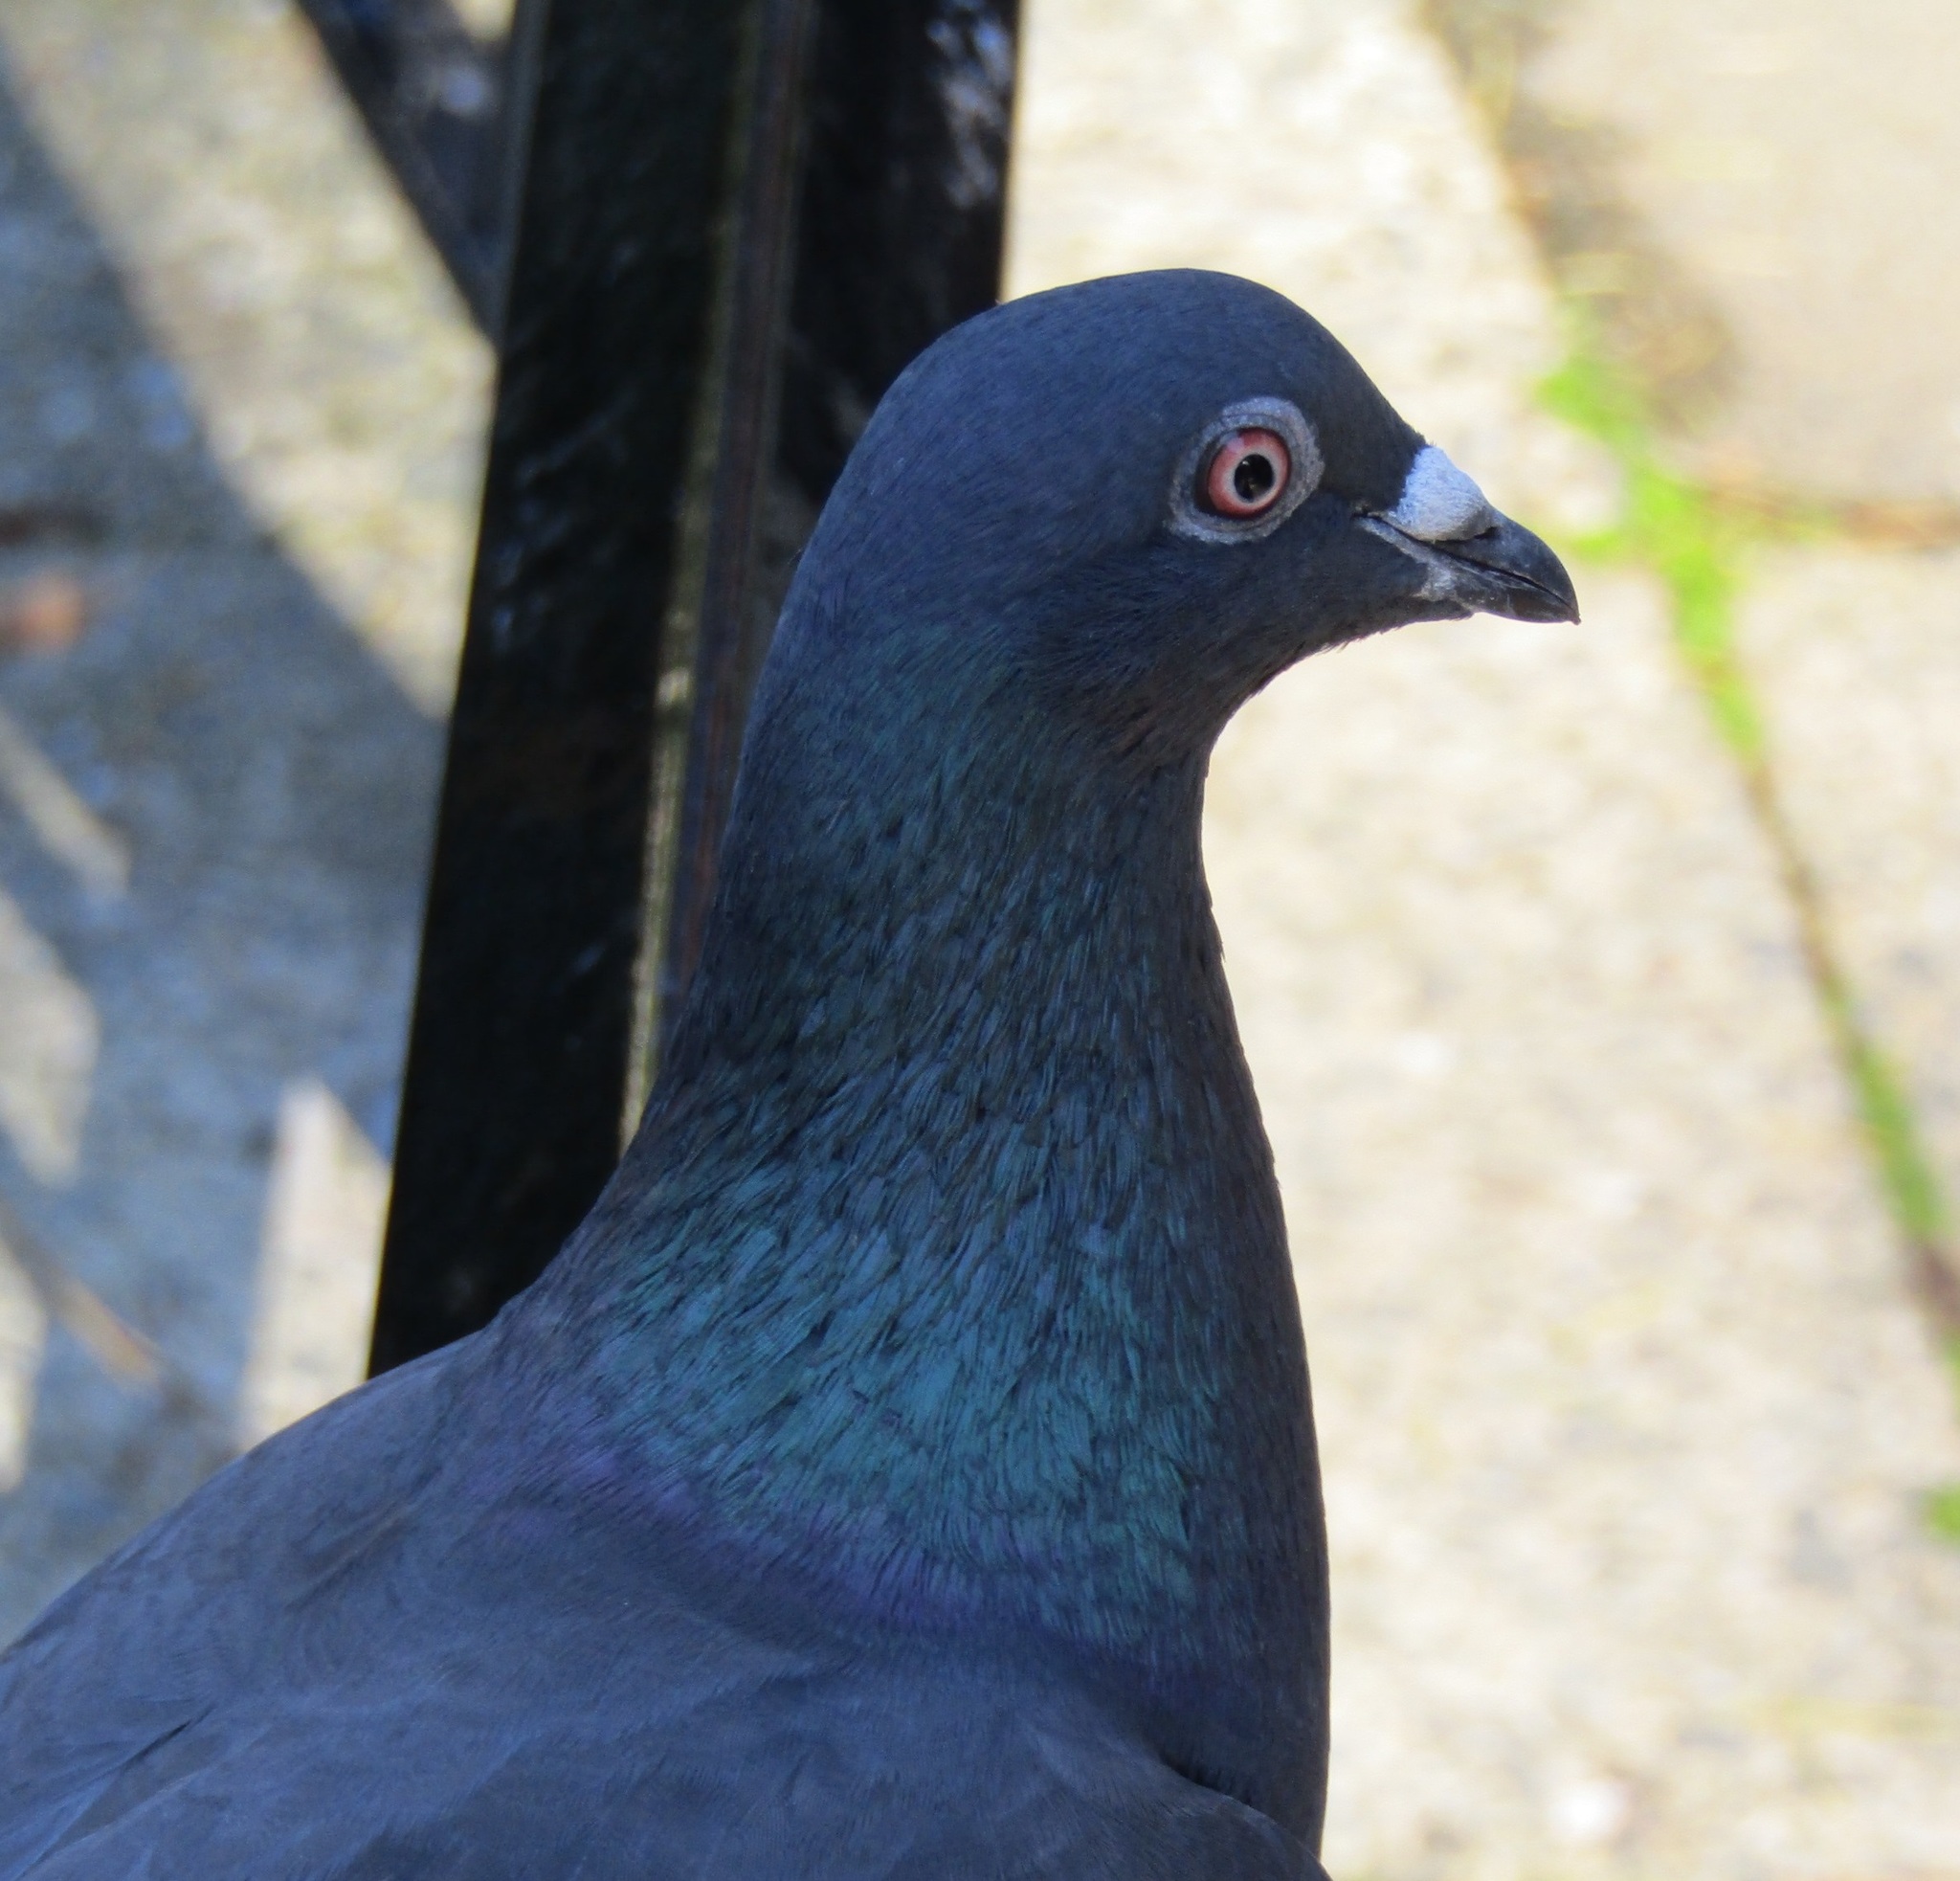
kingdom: Animalia
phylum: Chordata
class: Aves
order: Columbiformes
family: Columbidae
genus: Columba
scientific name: Columba livia
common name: Rock pigeon
